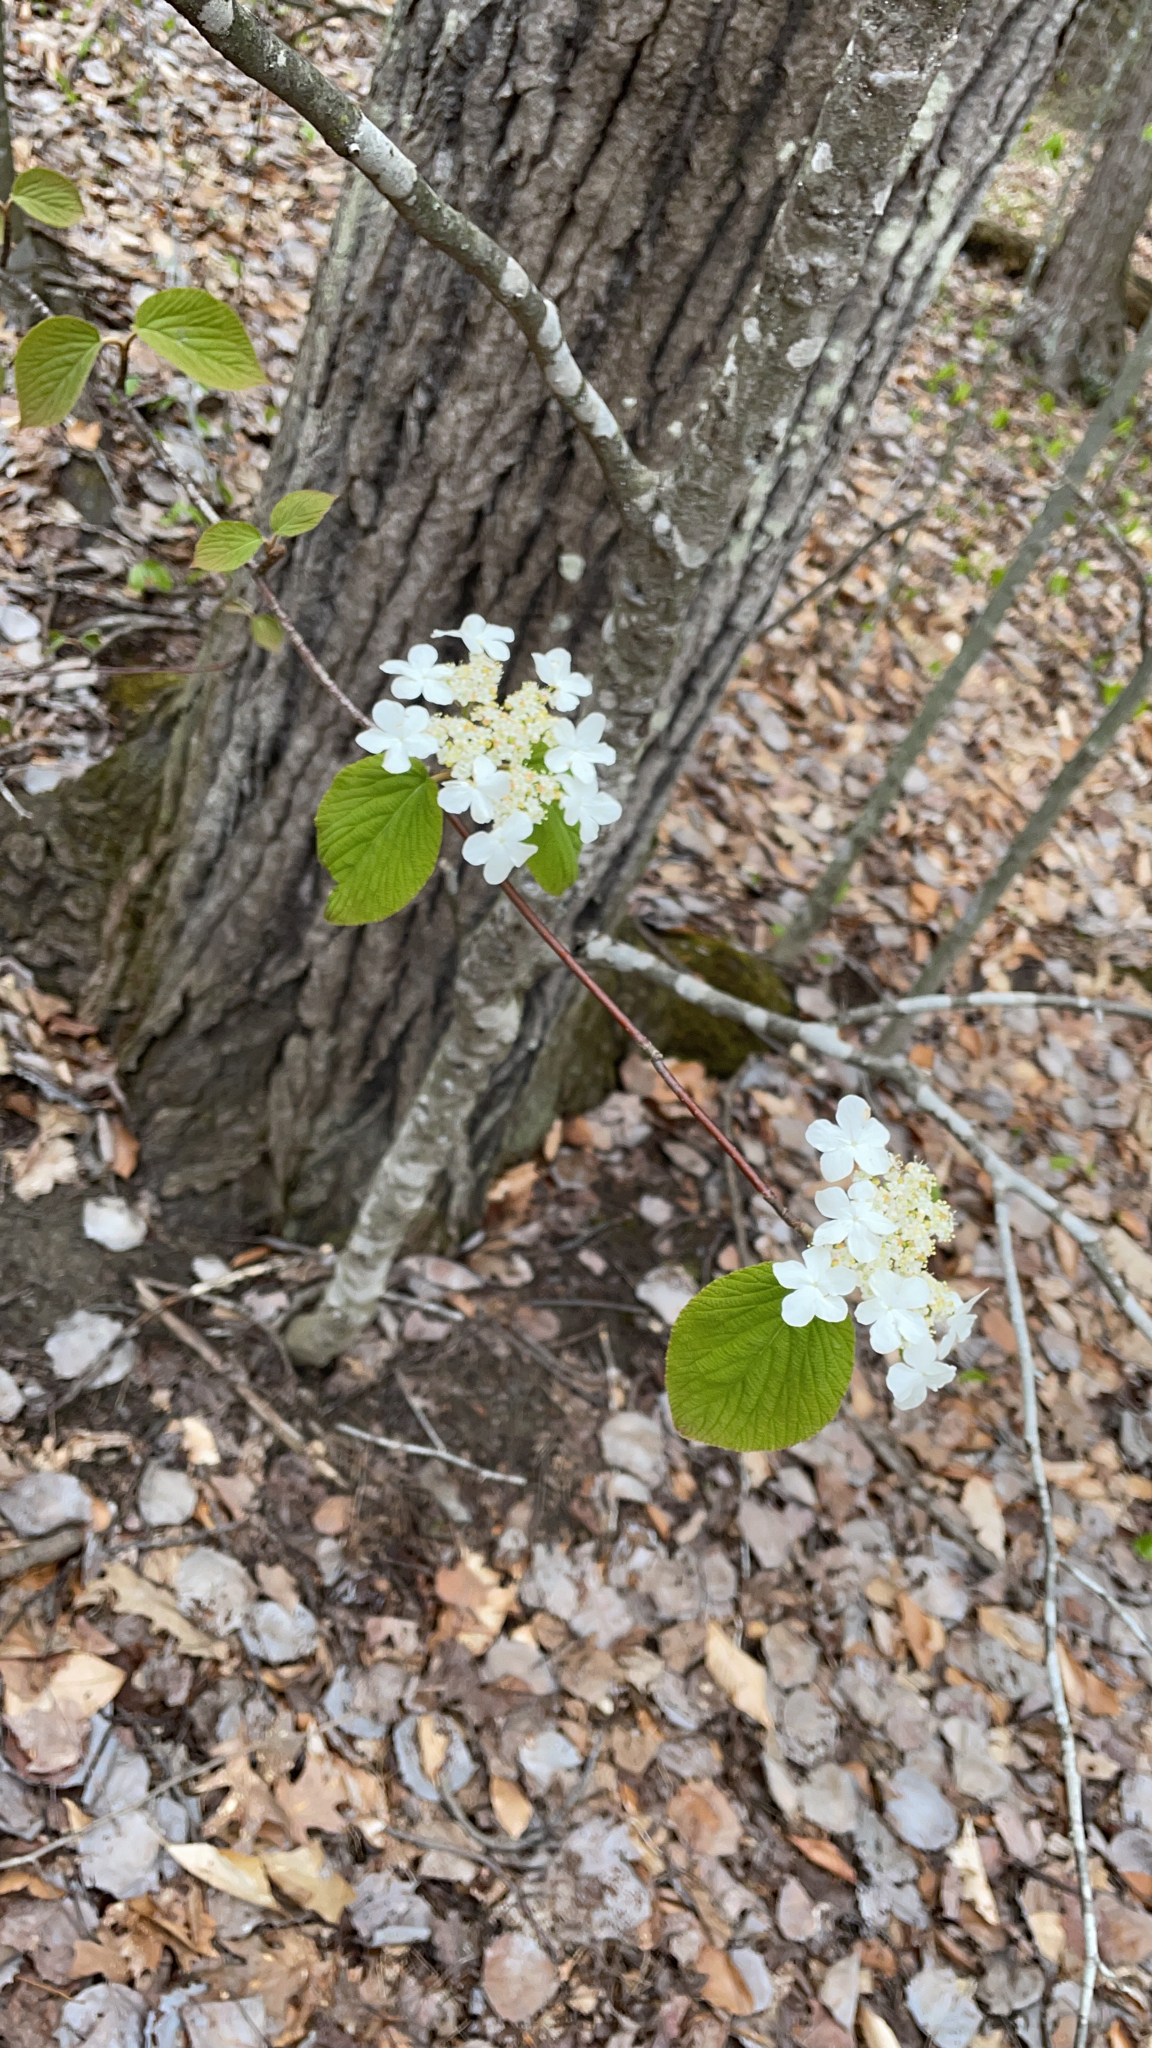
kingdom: Plantae
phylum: Tracheophyta
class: Magnoliopsida
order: Dipsacales
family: Viburnaceae
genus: Viburnum
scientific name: Viburnum lantanoides
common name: Hobblebush
